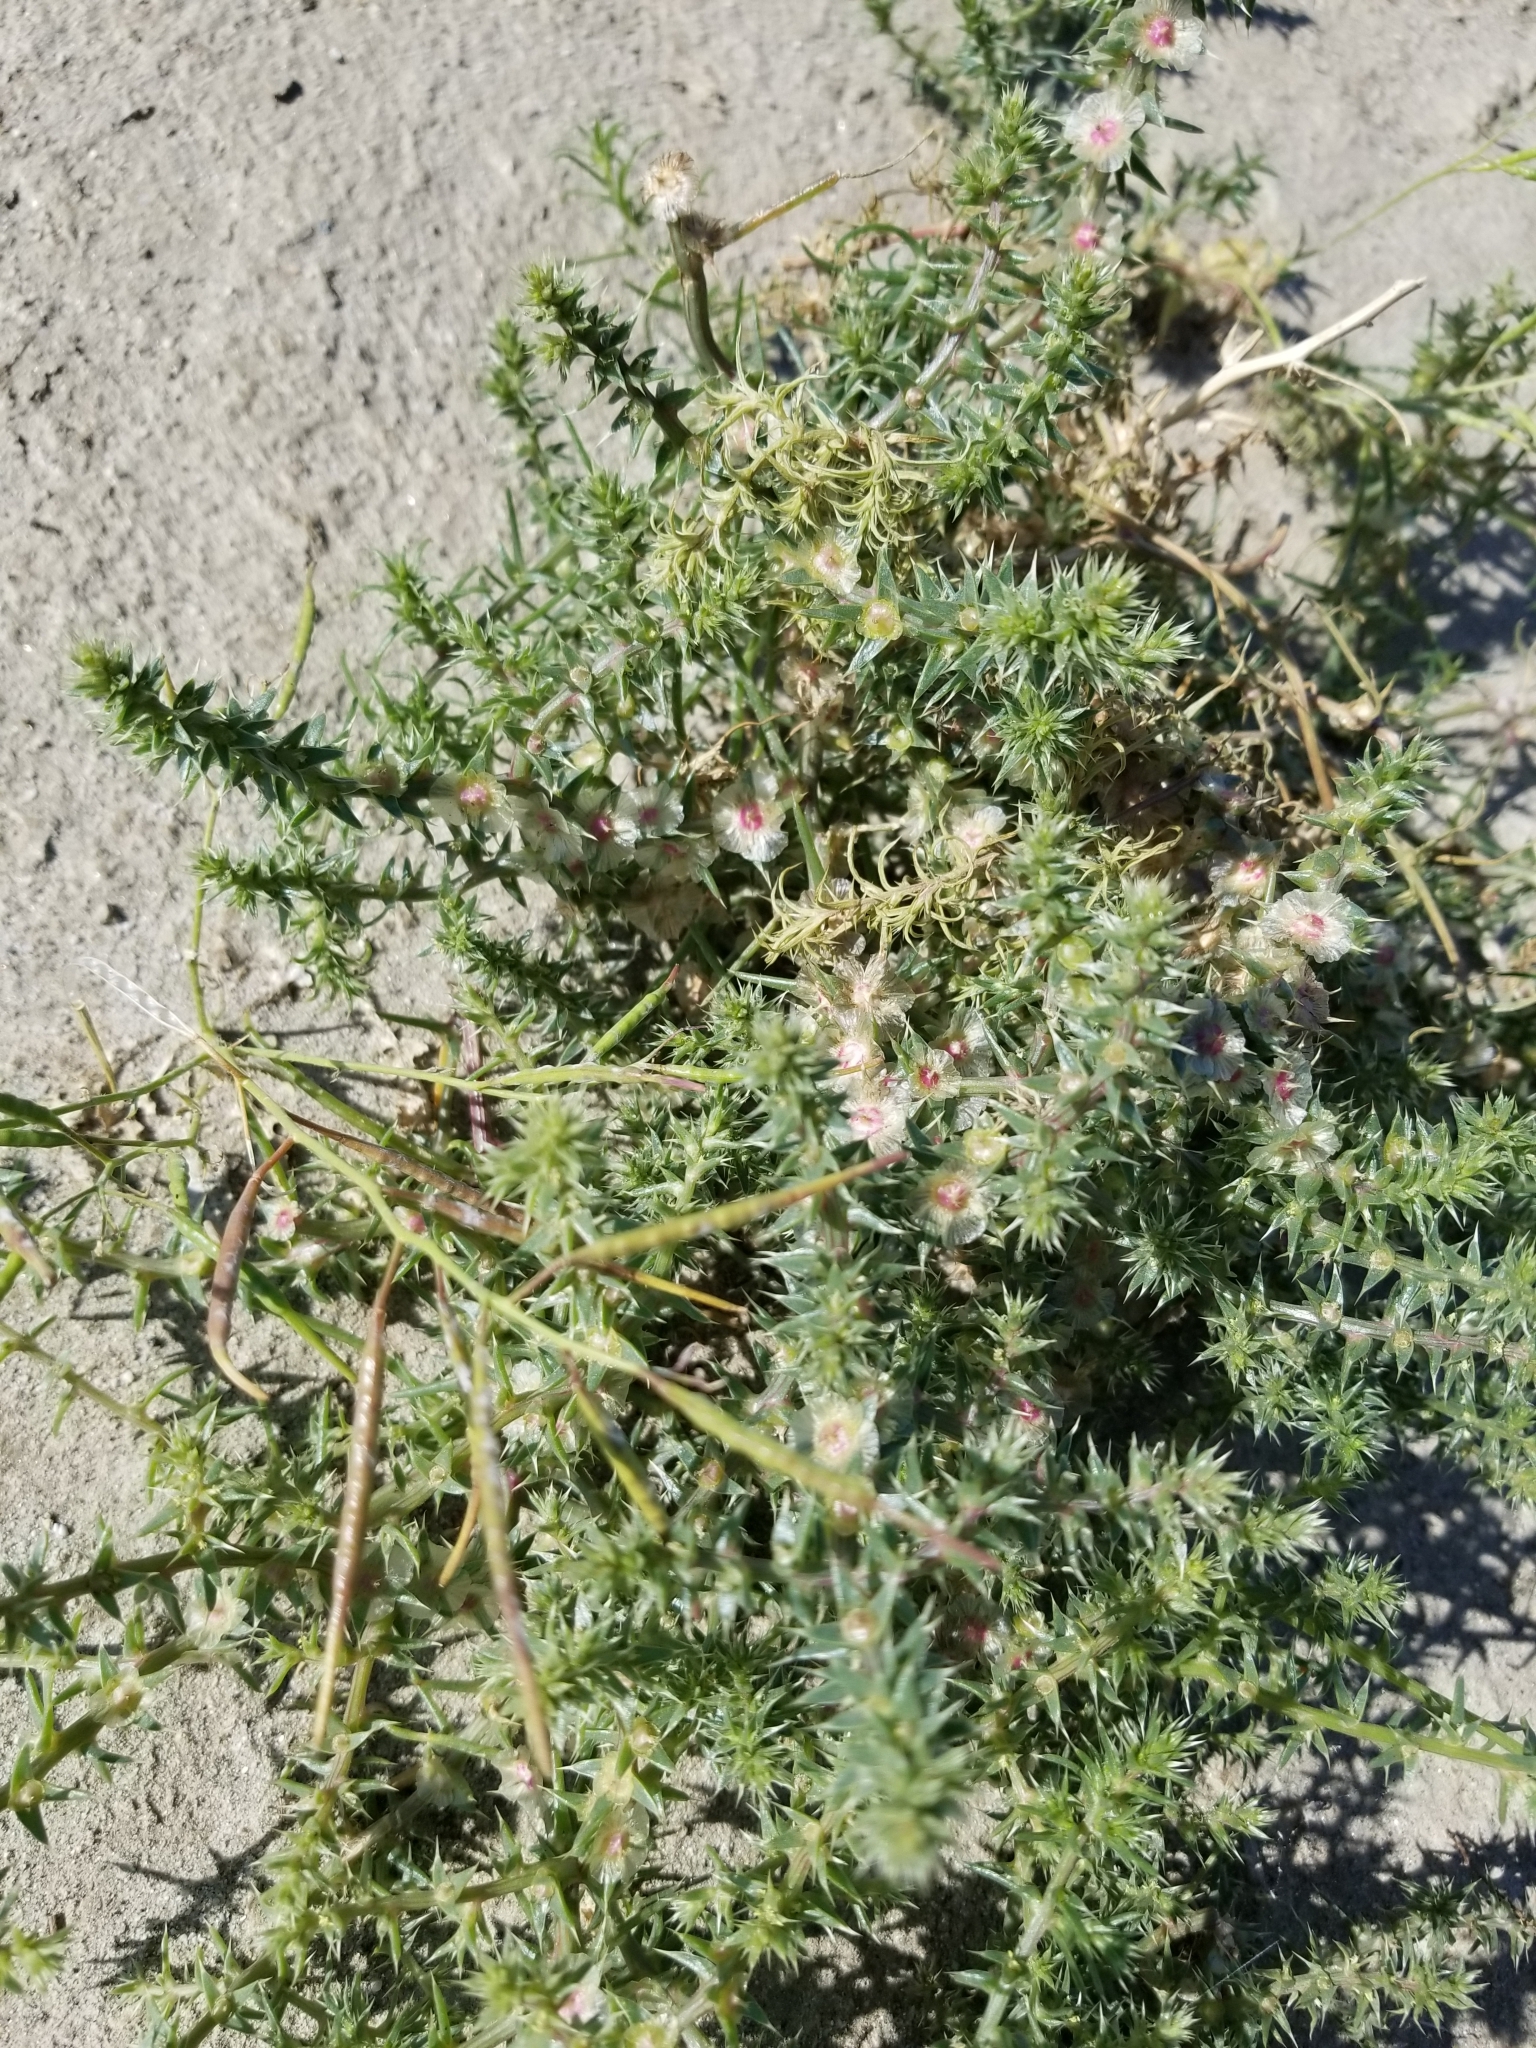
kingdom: Plantae
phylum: Tracheophyta
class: Magnoliopsida
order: Caryophyllales
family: Amaranthaceae
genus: Salsola
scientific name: Salsola tragus
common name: Prickly russian thistle
